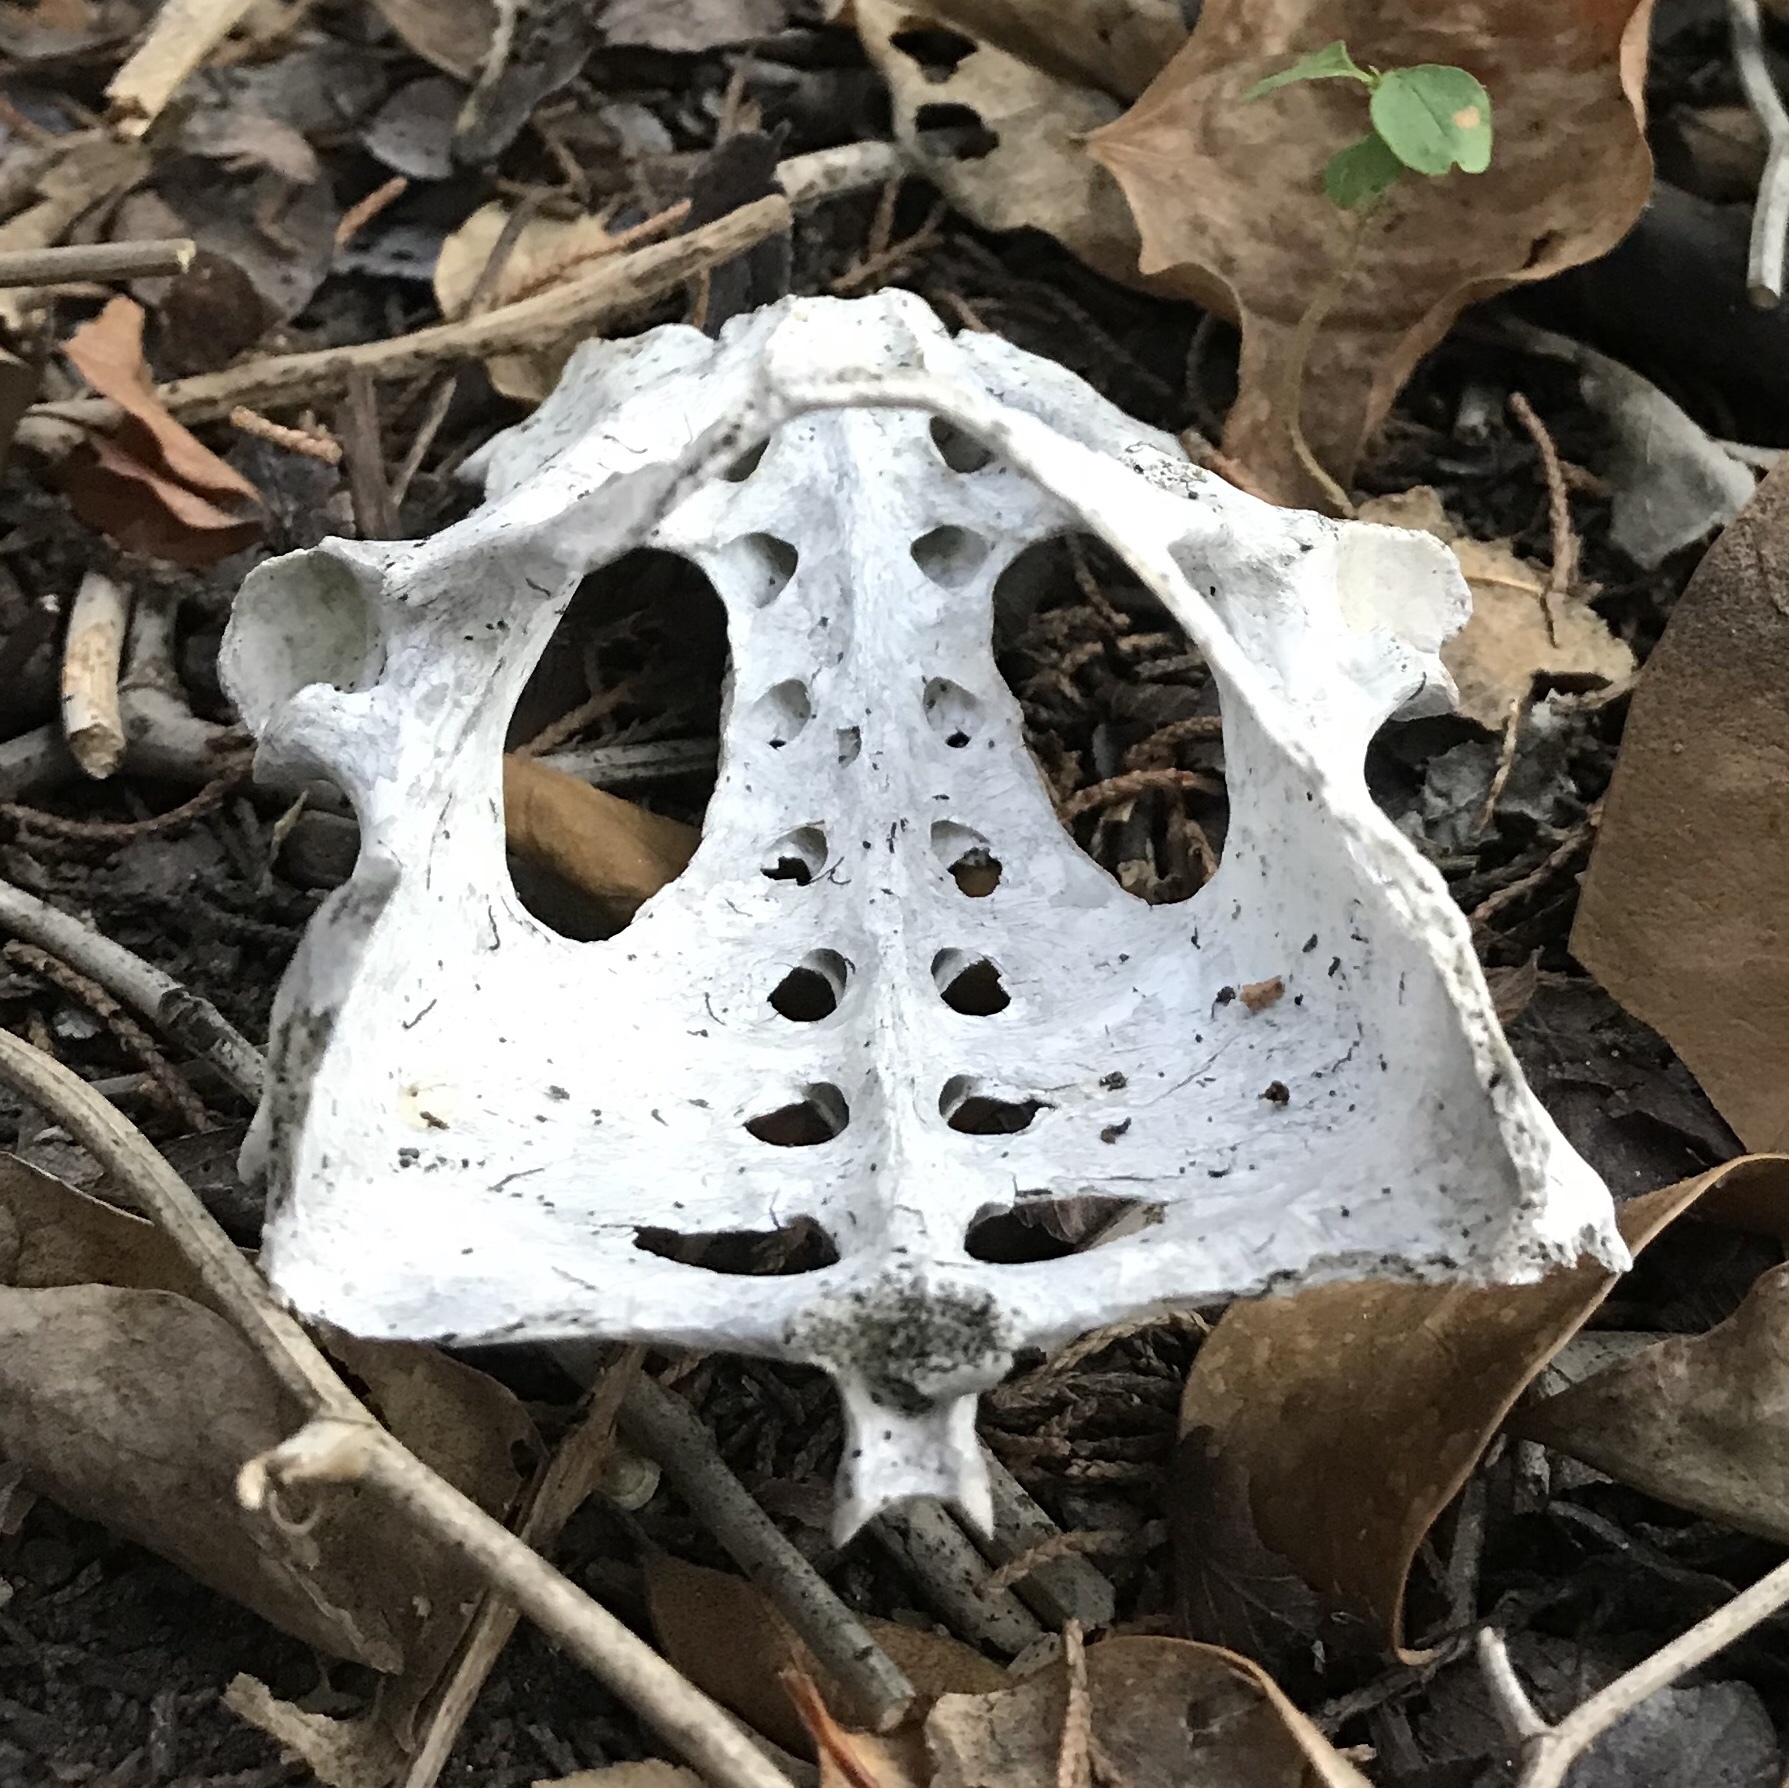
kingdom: Animalia
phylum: Chordata
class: Mammalia
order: Cingulata
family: Dasypodidae
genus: Dasypus
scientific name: Dasypus novemcinctus
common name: Nine-banded armadillo
